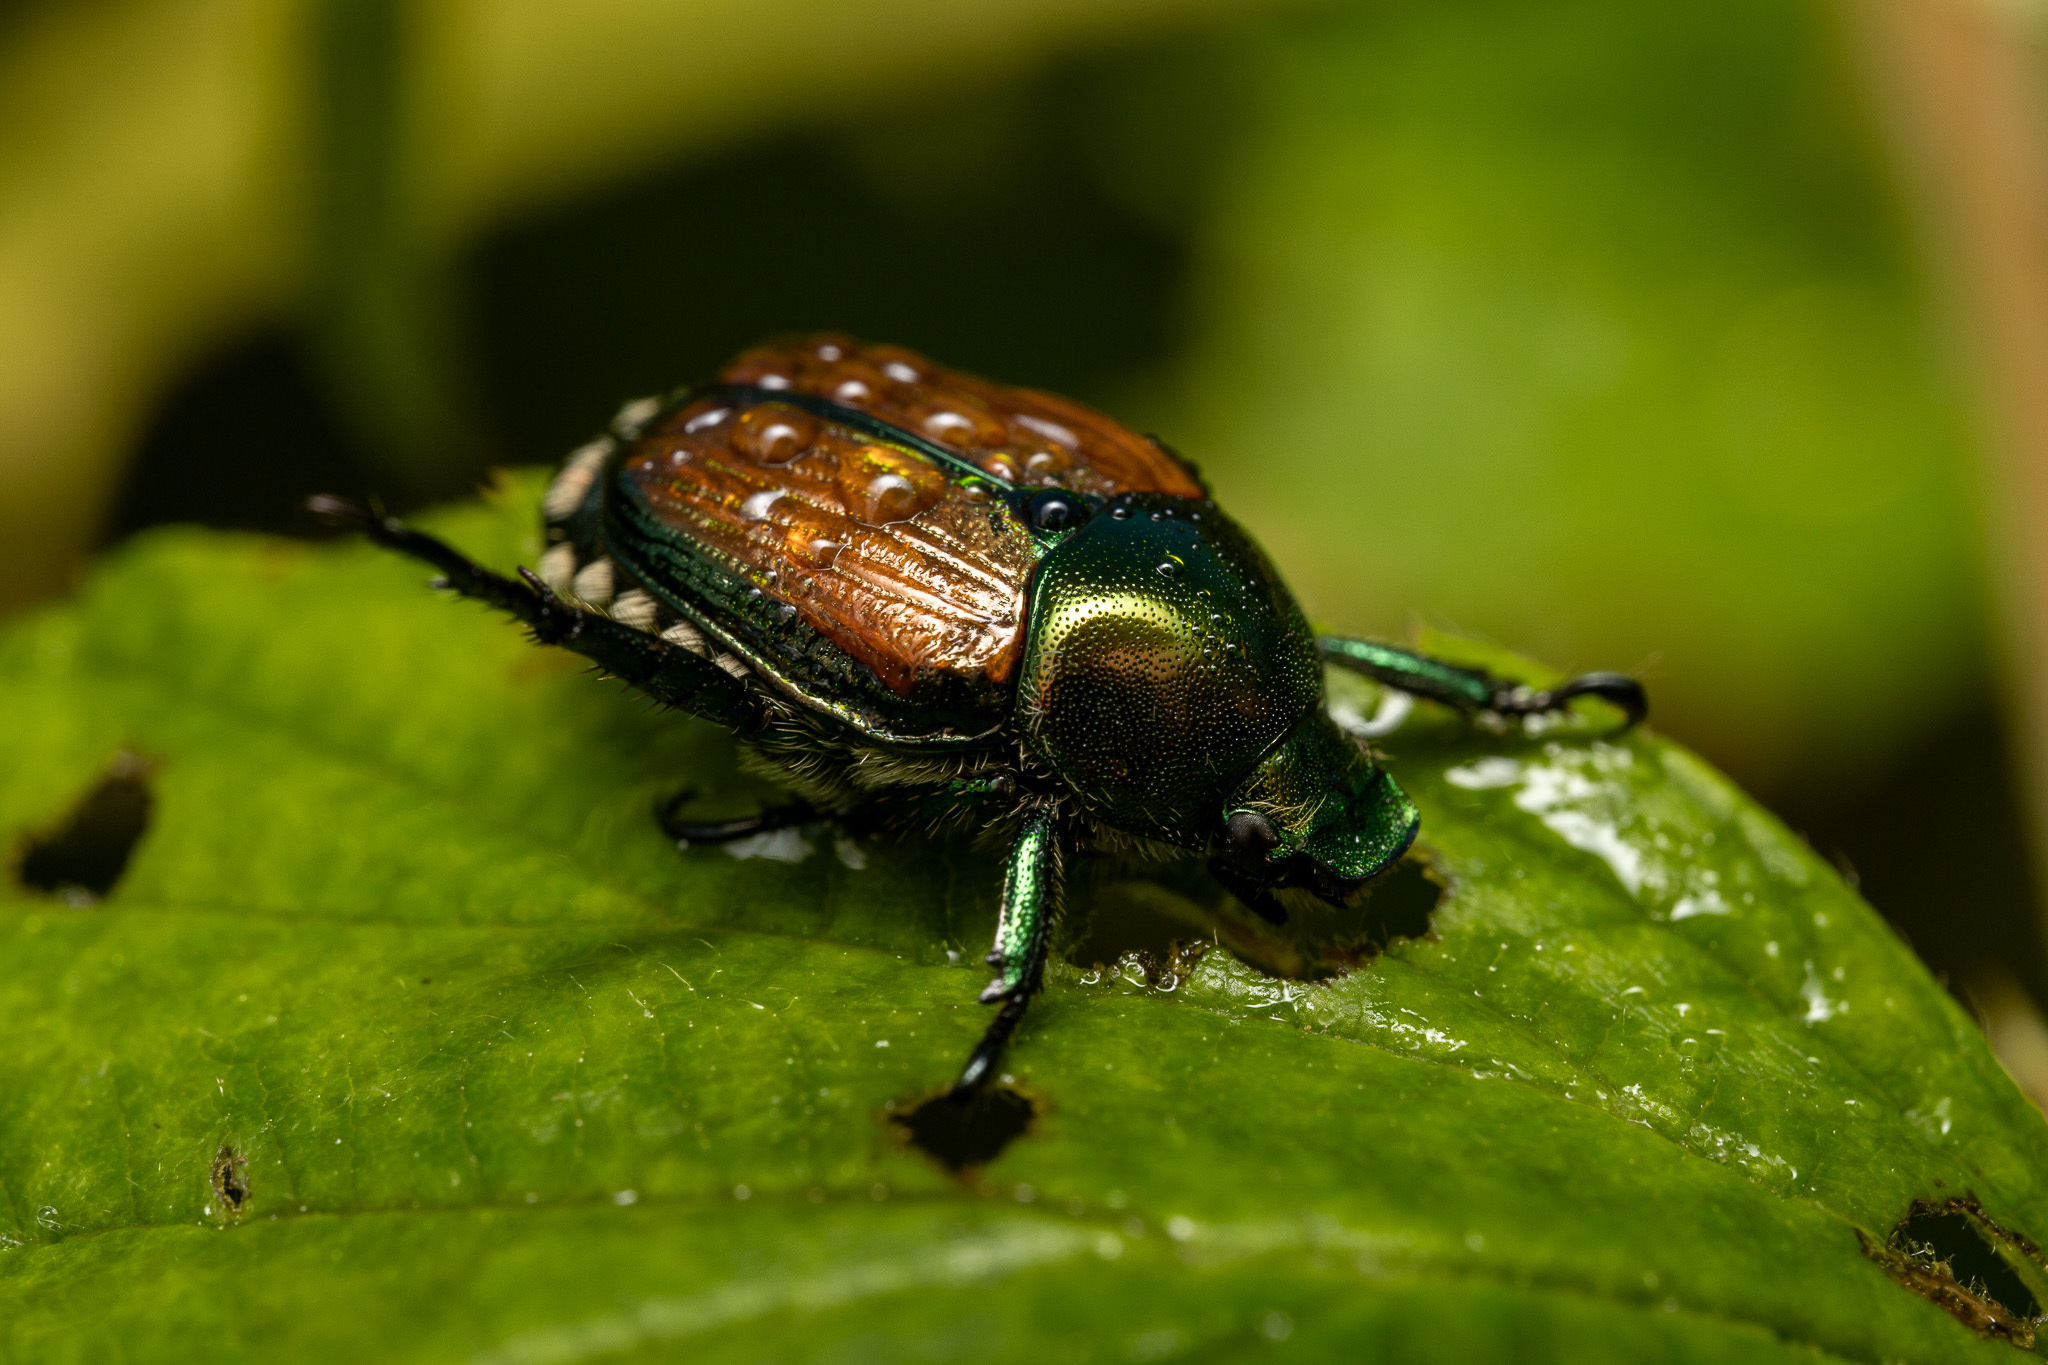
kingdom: Animalia
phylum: Arthropoda
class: Insecta
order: Coleoptera
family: Scarabaeidae
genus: Popillia
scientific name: Popillia japonica
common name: Japanese beetle
